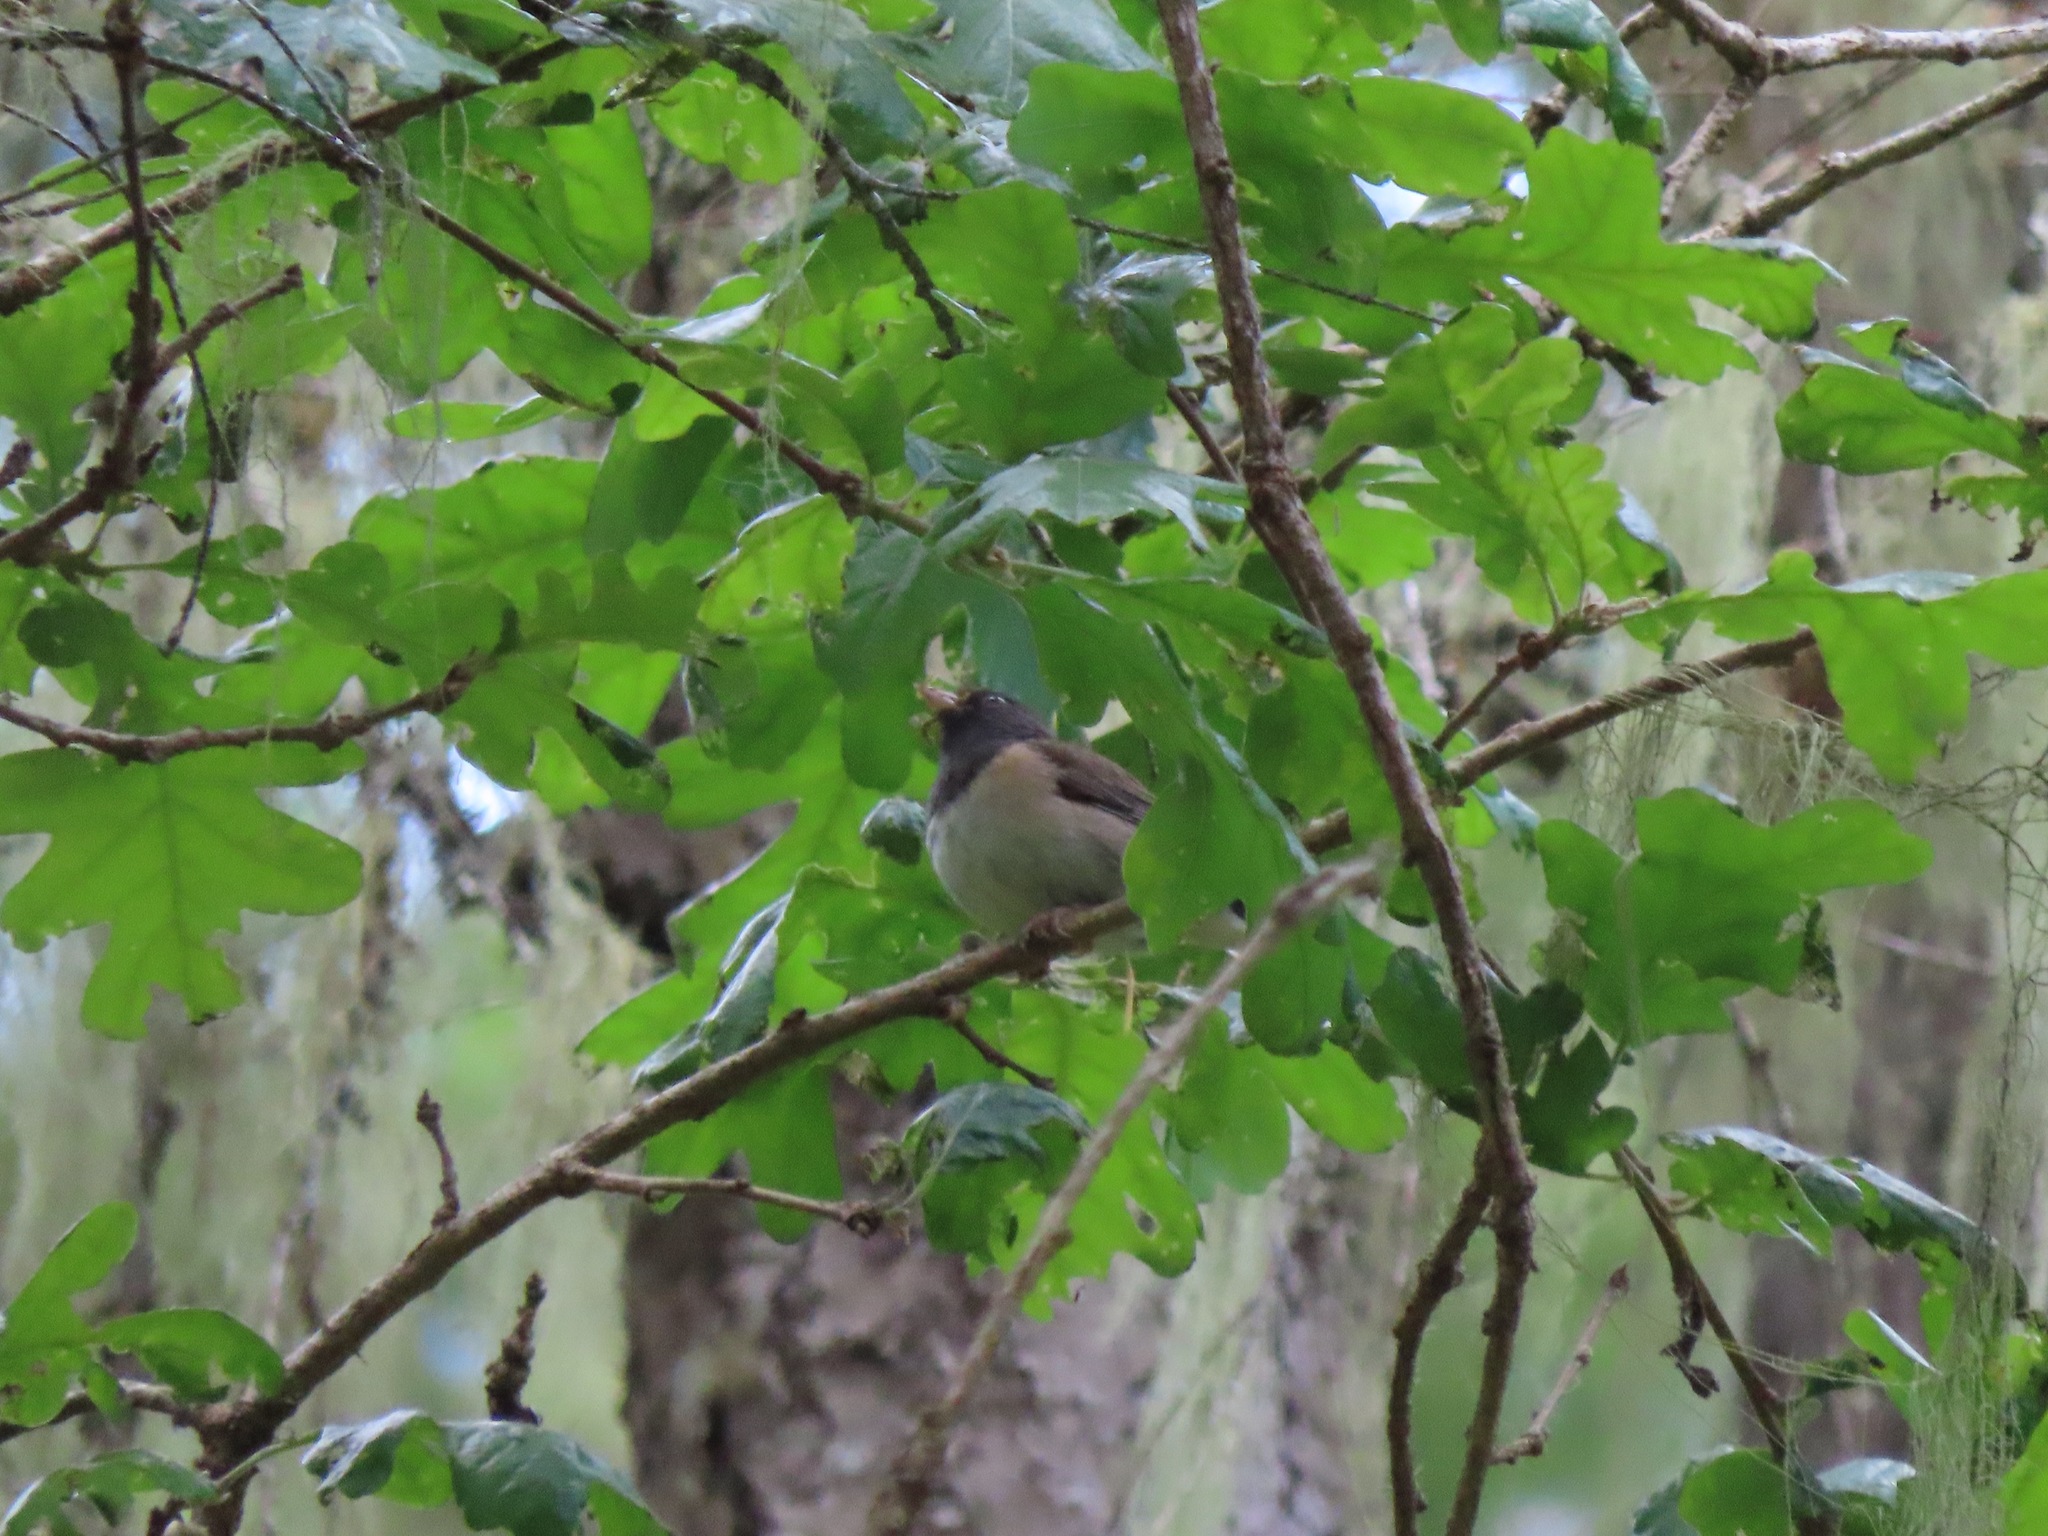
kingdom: Animalia
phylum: Chordata
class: Aves
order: Passeriformes
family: Passerellidae
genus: Junco
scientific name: Junco hyemalis
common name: Dark-eyed junco
